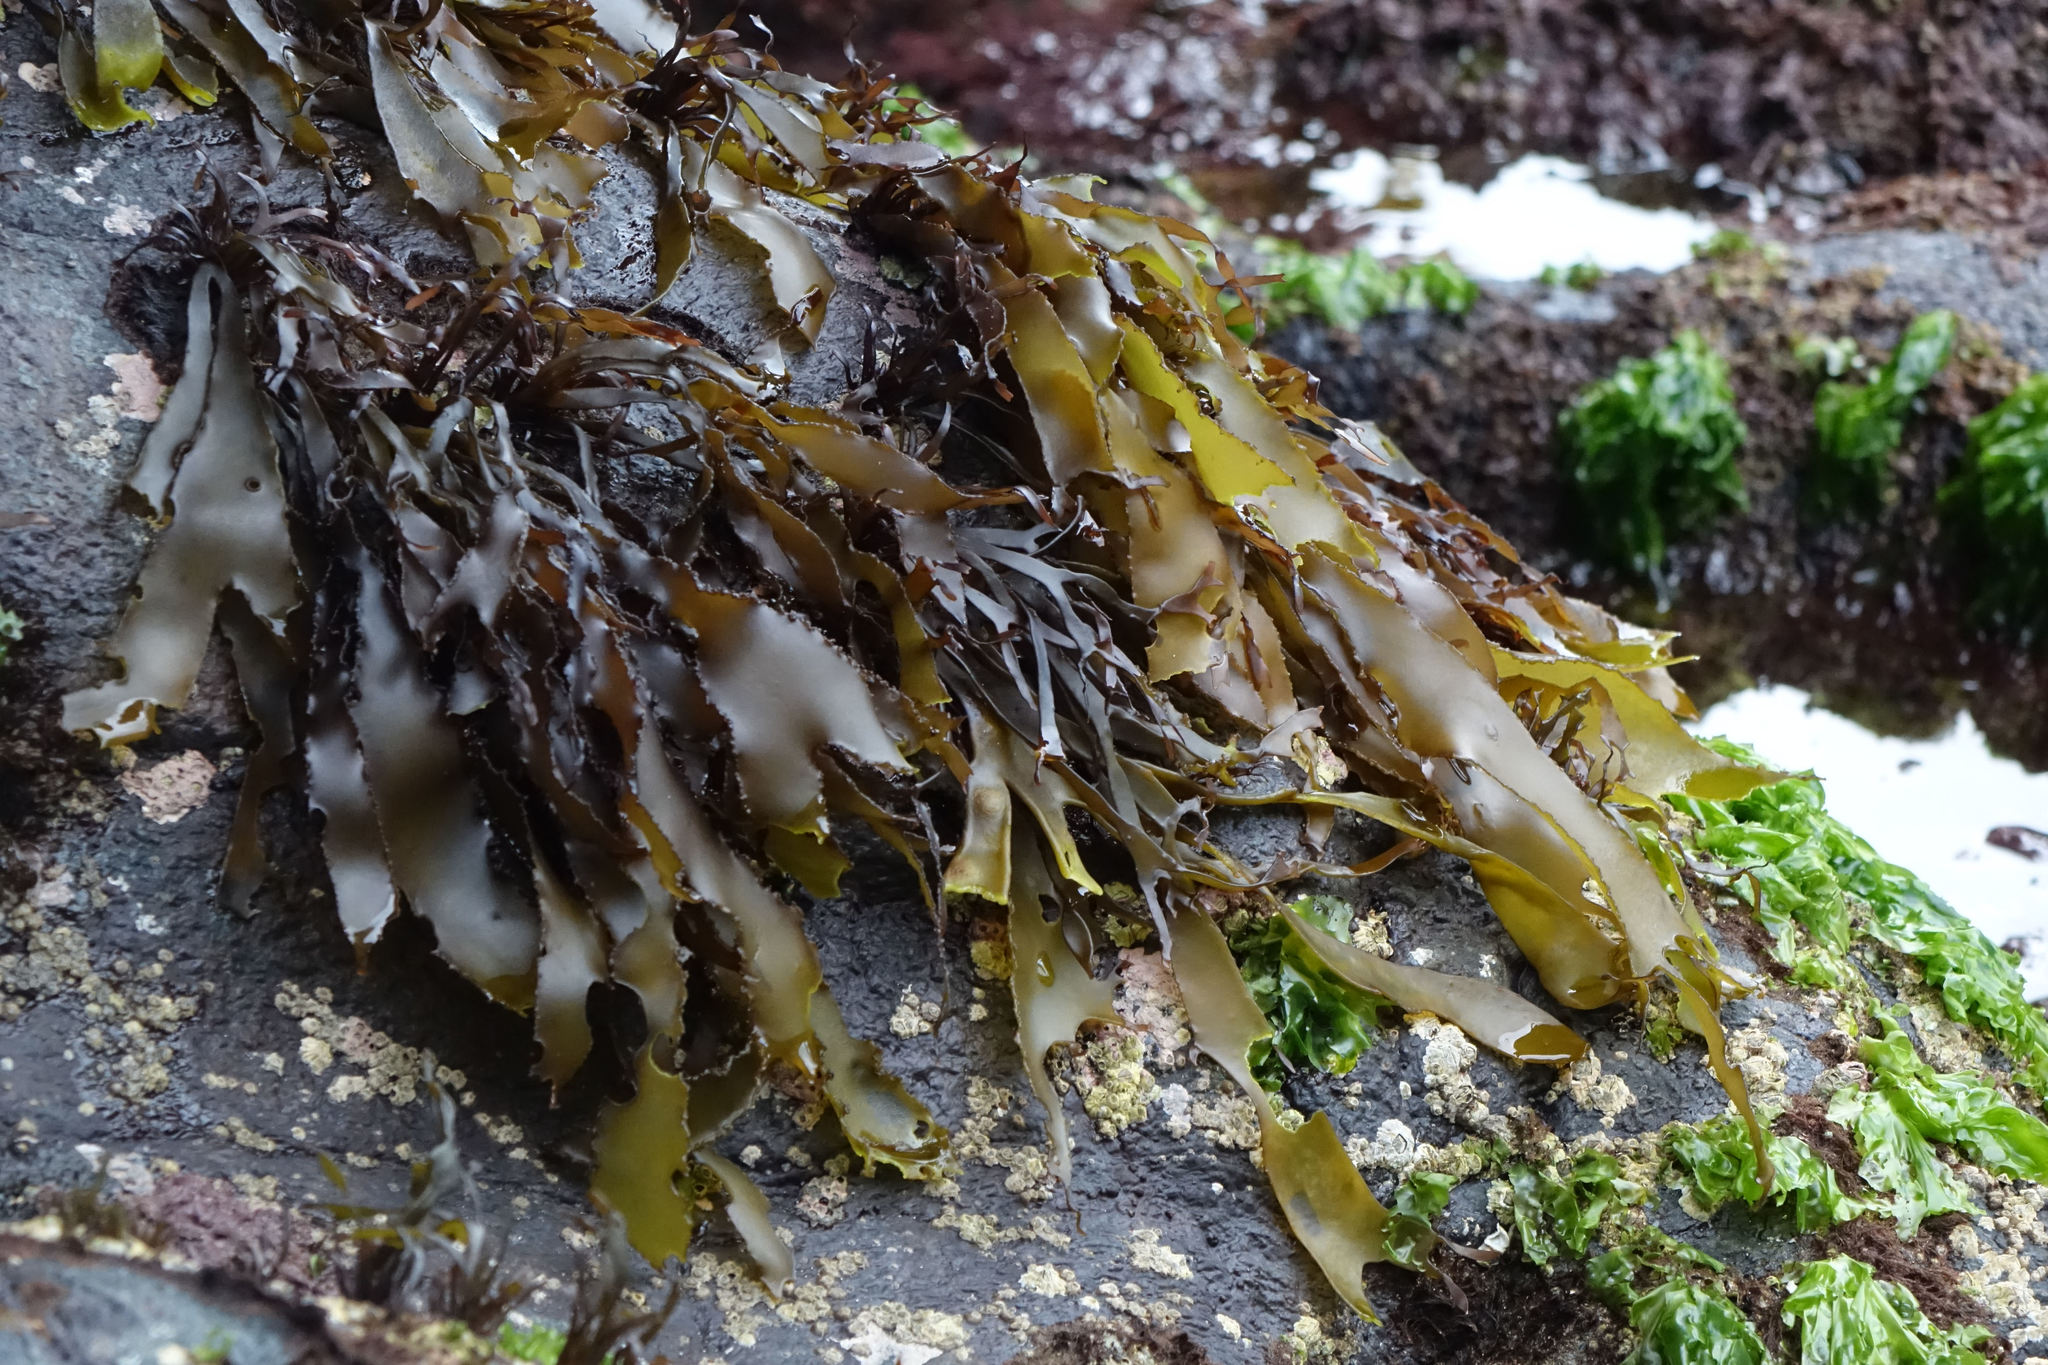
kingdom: Plantae
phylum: Rhodophyta
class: Florideophyceae
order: Halymeniales
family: Halymeniaceae
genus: Pachymenia
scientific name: Pachymenia dichotoma
